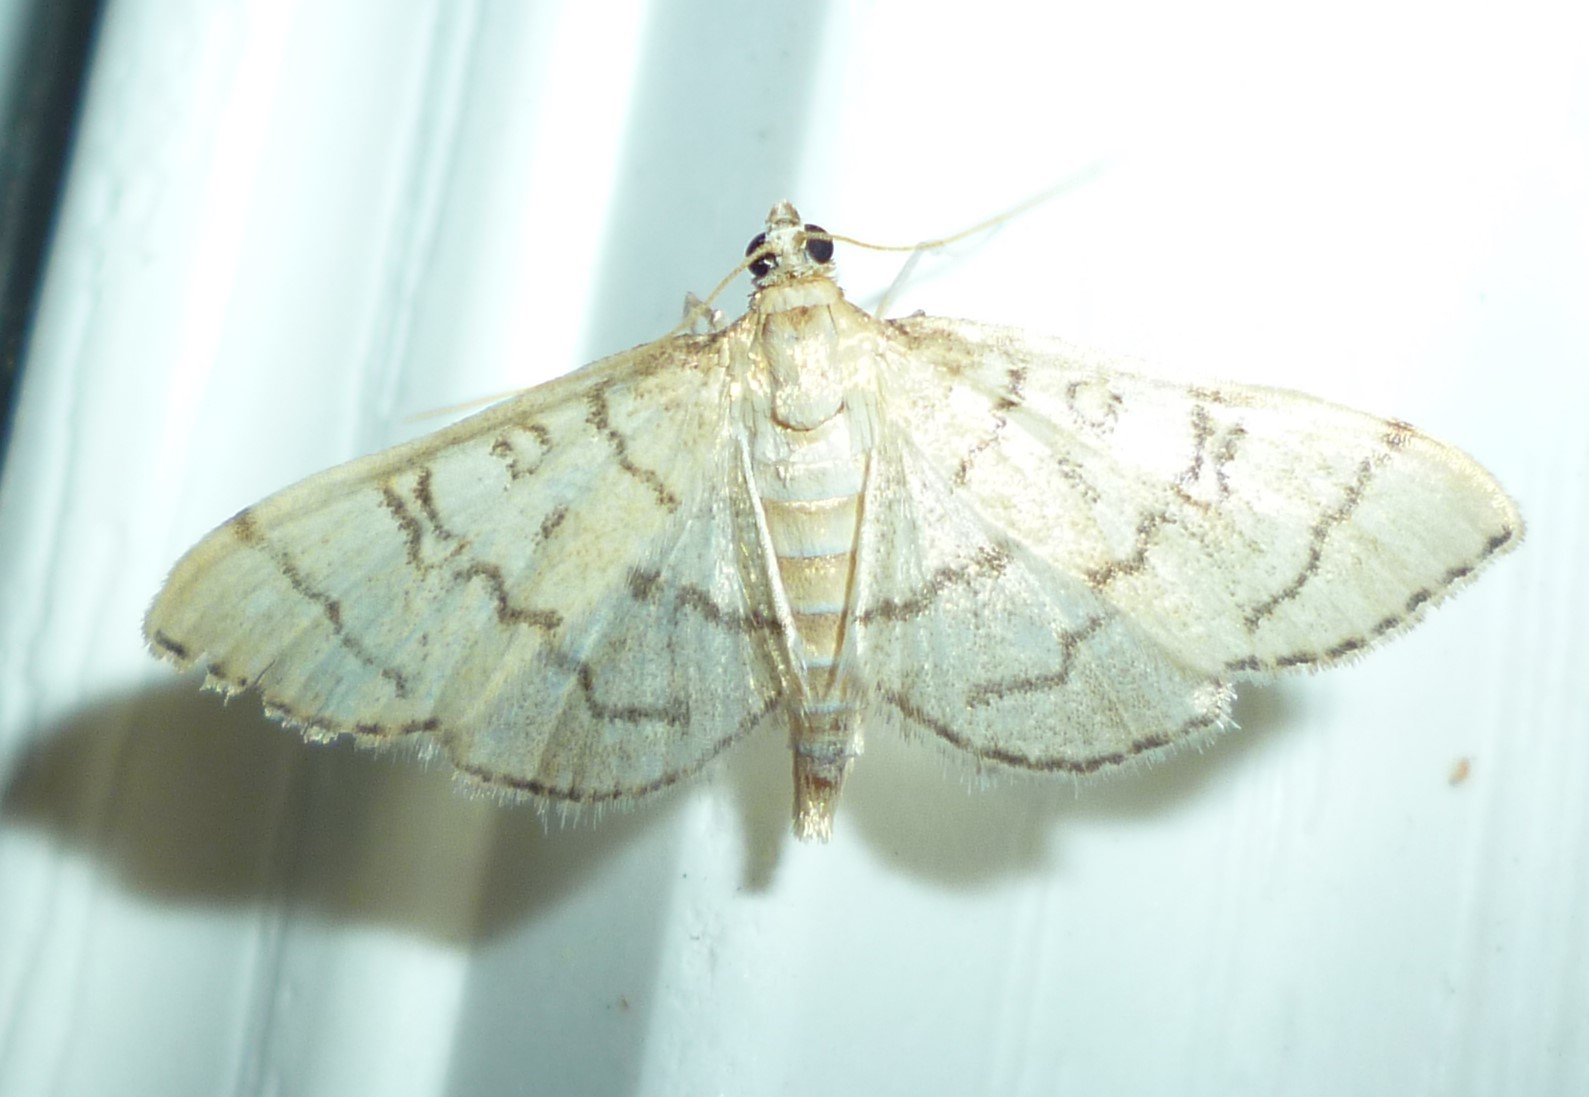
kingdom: Animalia
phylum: Arthropoda
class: Insecta
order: Lepidoptera
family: Crambidae
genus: Lamprosema
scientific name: Lamprosema Blepharomastix ranalis
